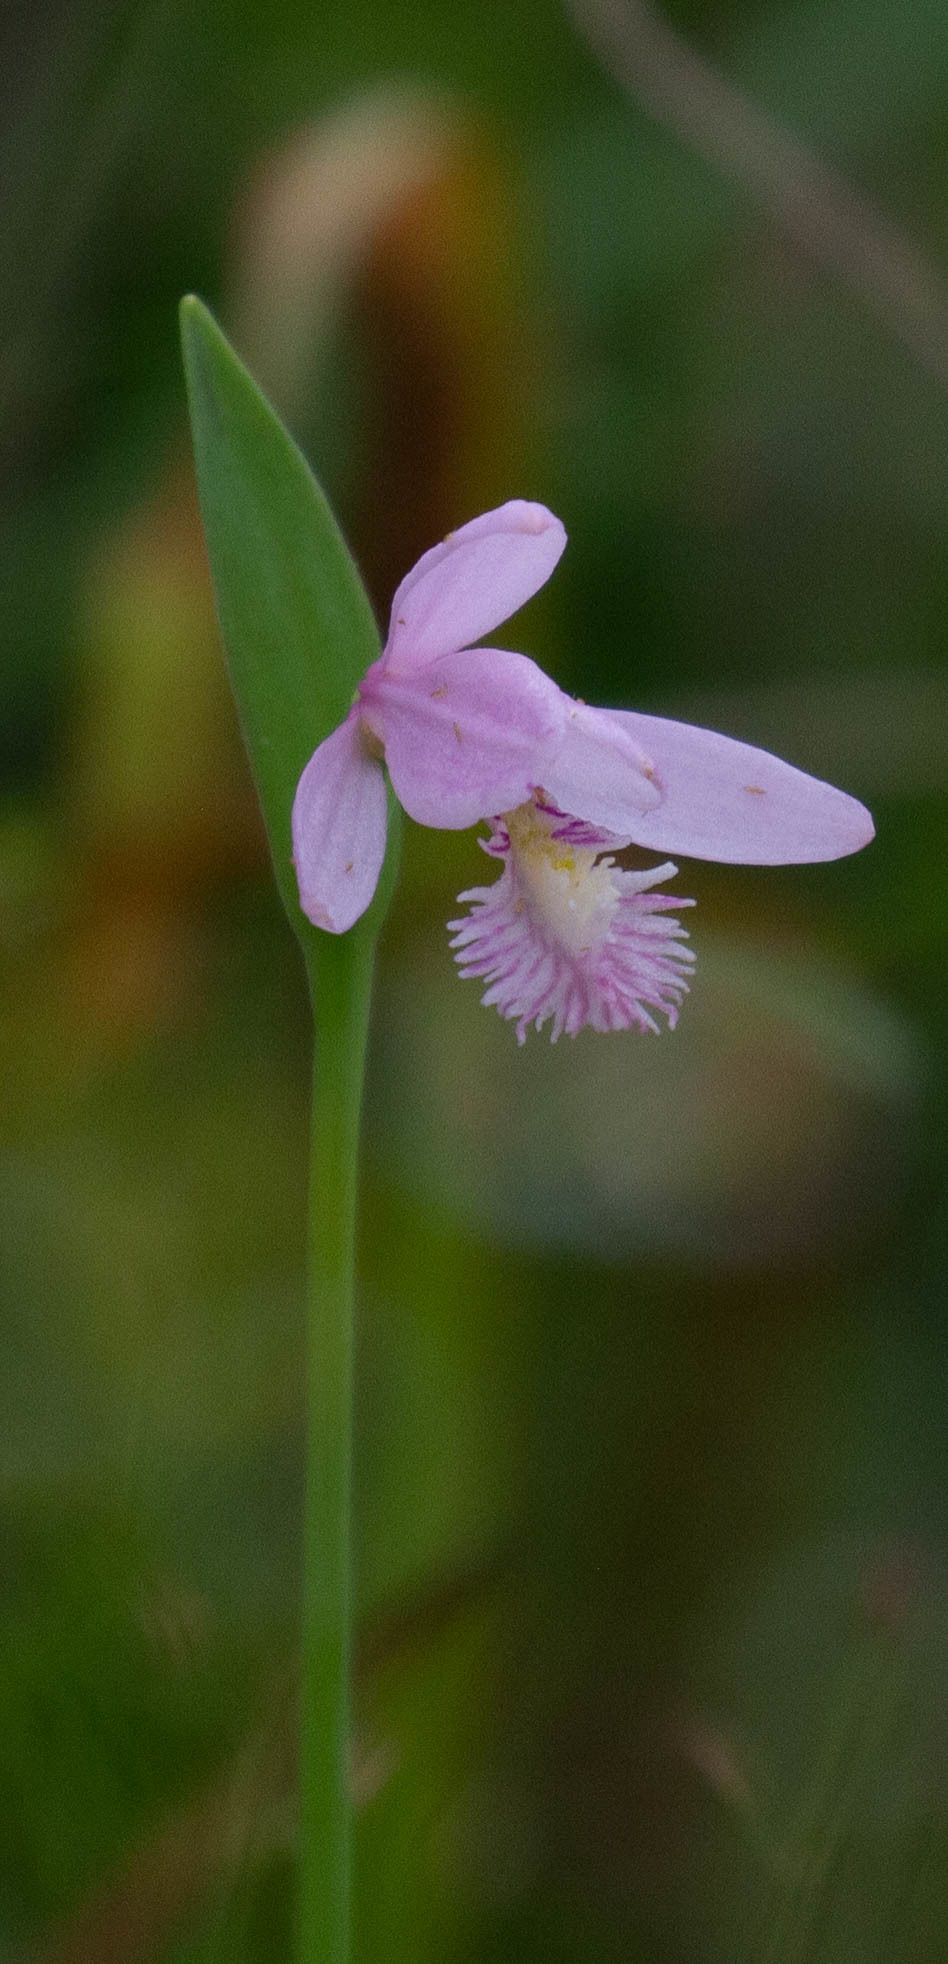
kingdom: Plantae
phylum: Tracheophyta
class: Liliopsida
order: Asparagales
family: Orchidaceae
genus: Pogonia
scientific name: Pogonia ophioglossoides
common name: Rose pogonia
